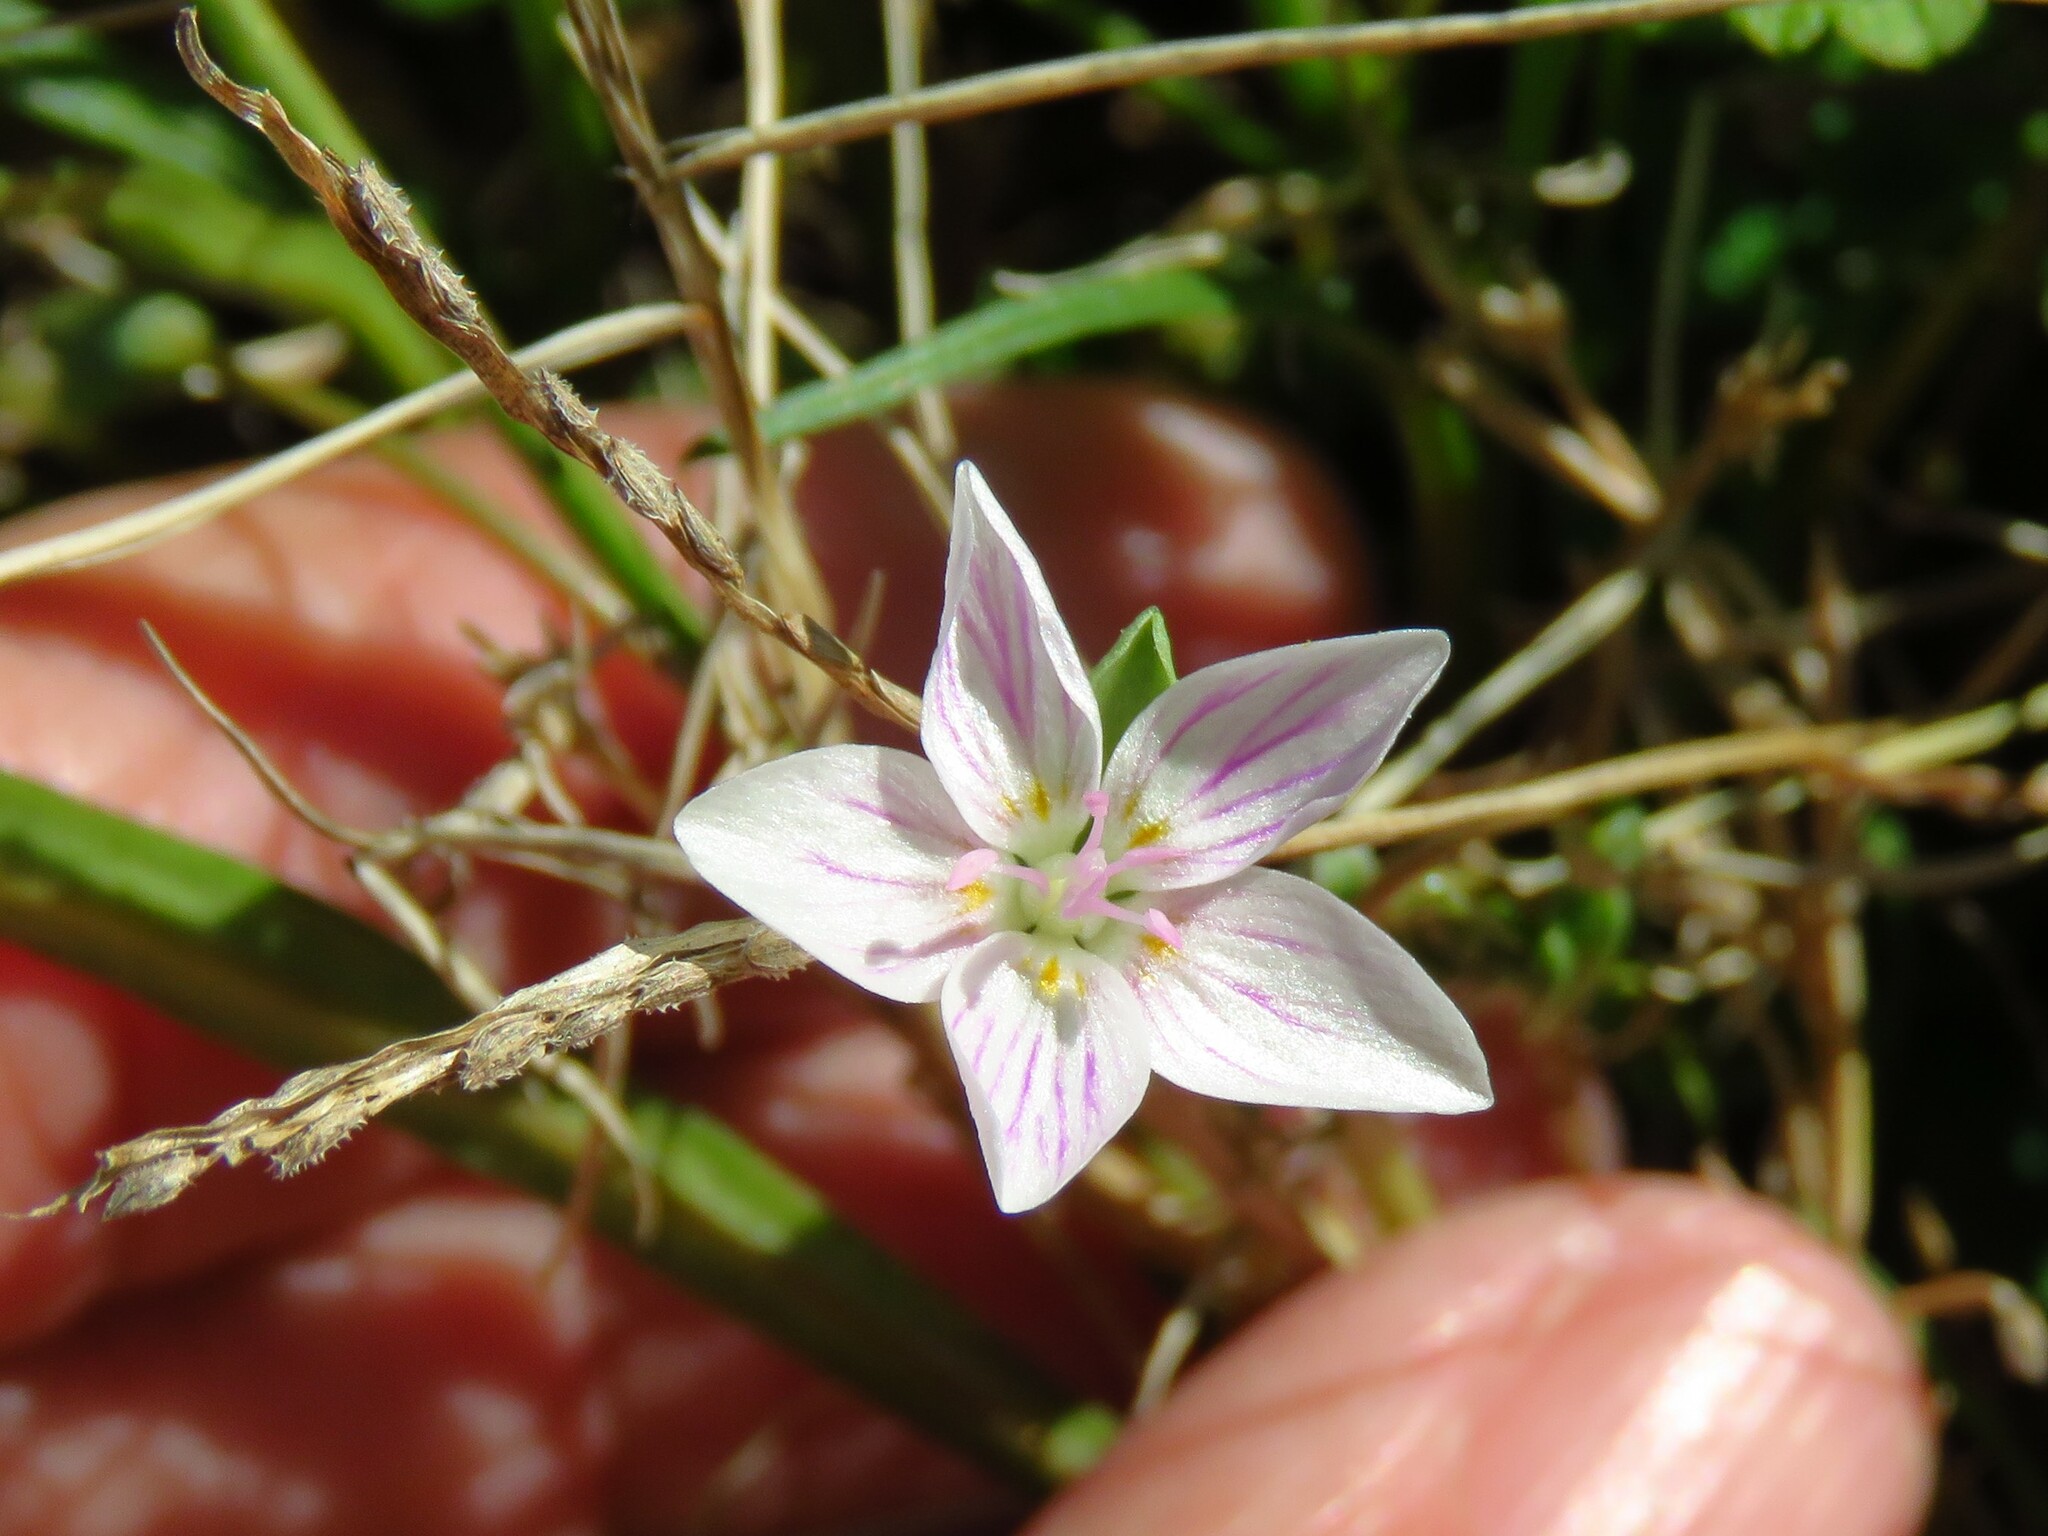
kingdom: Plantae
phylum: Tracheophyta
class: Magnoliopsida
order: Caryophyllales
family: Montiaceae
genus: Claytonia
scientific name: Claytonia virginica
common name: Virginia springbeauty
